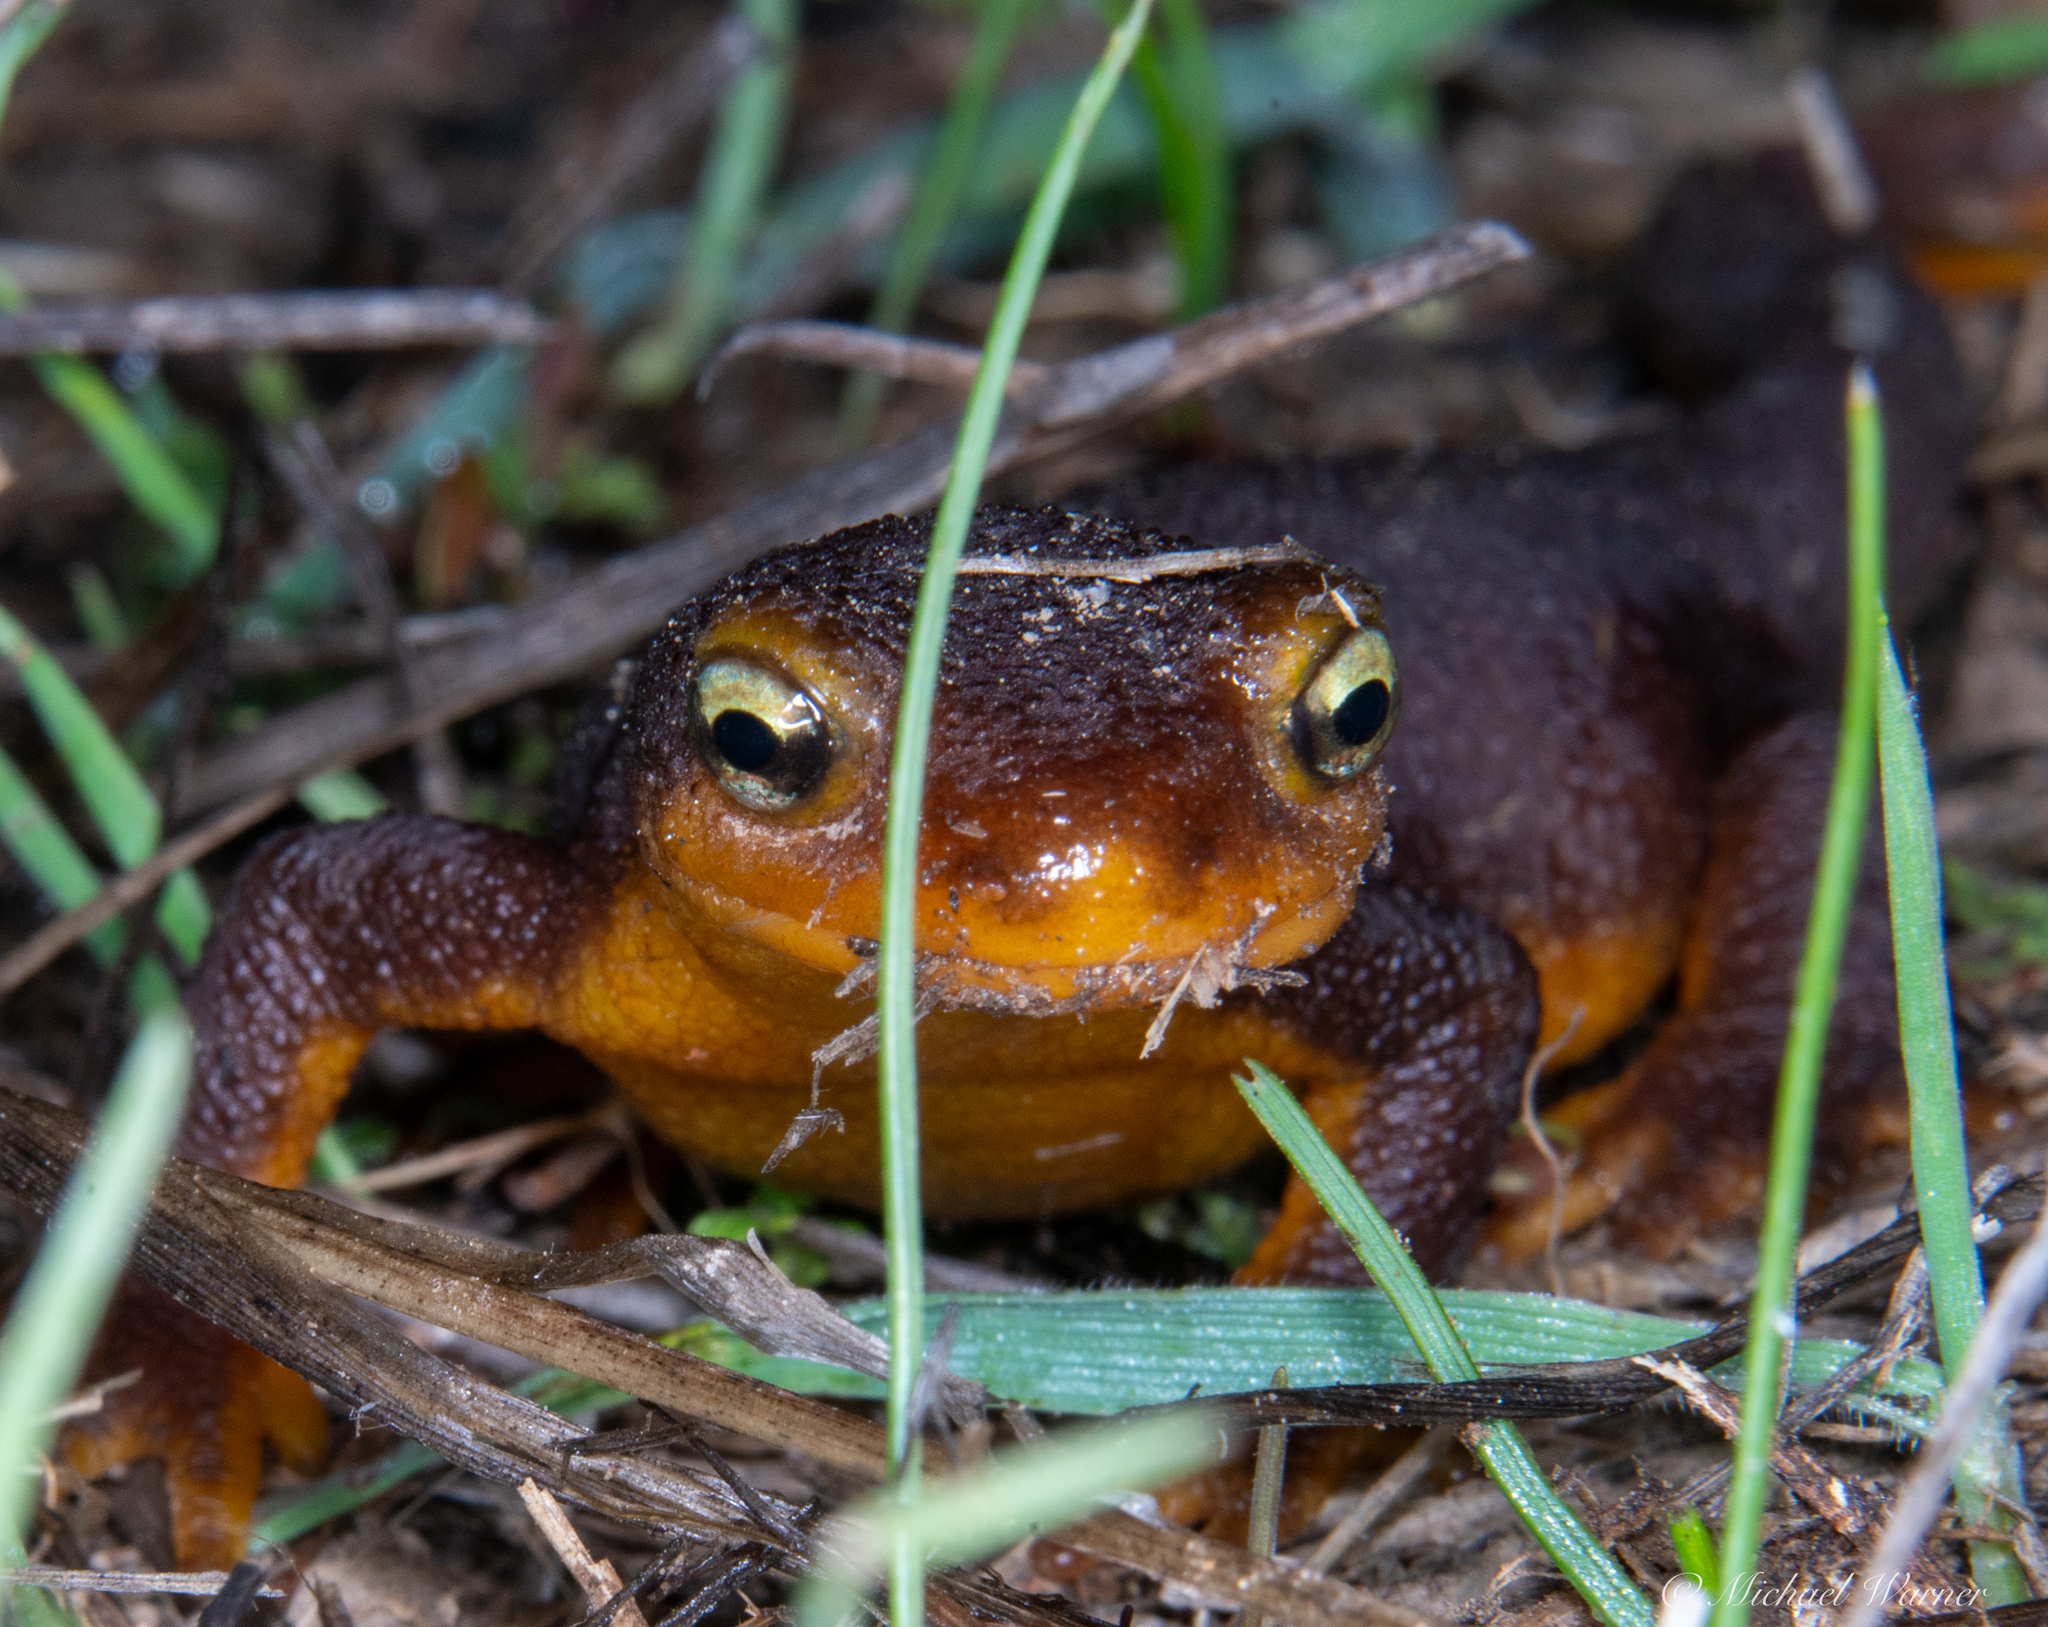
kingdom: Animalia
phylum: Chordata
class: Amphibia
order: Caudata
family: Salamandridae
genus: Taricha
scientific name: Taricha torosa
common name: California newt
